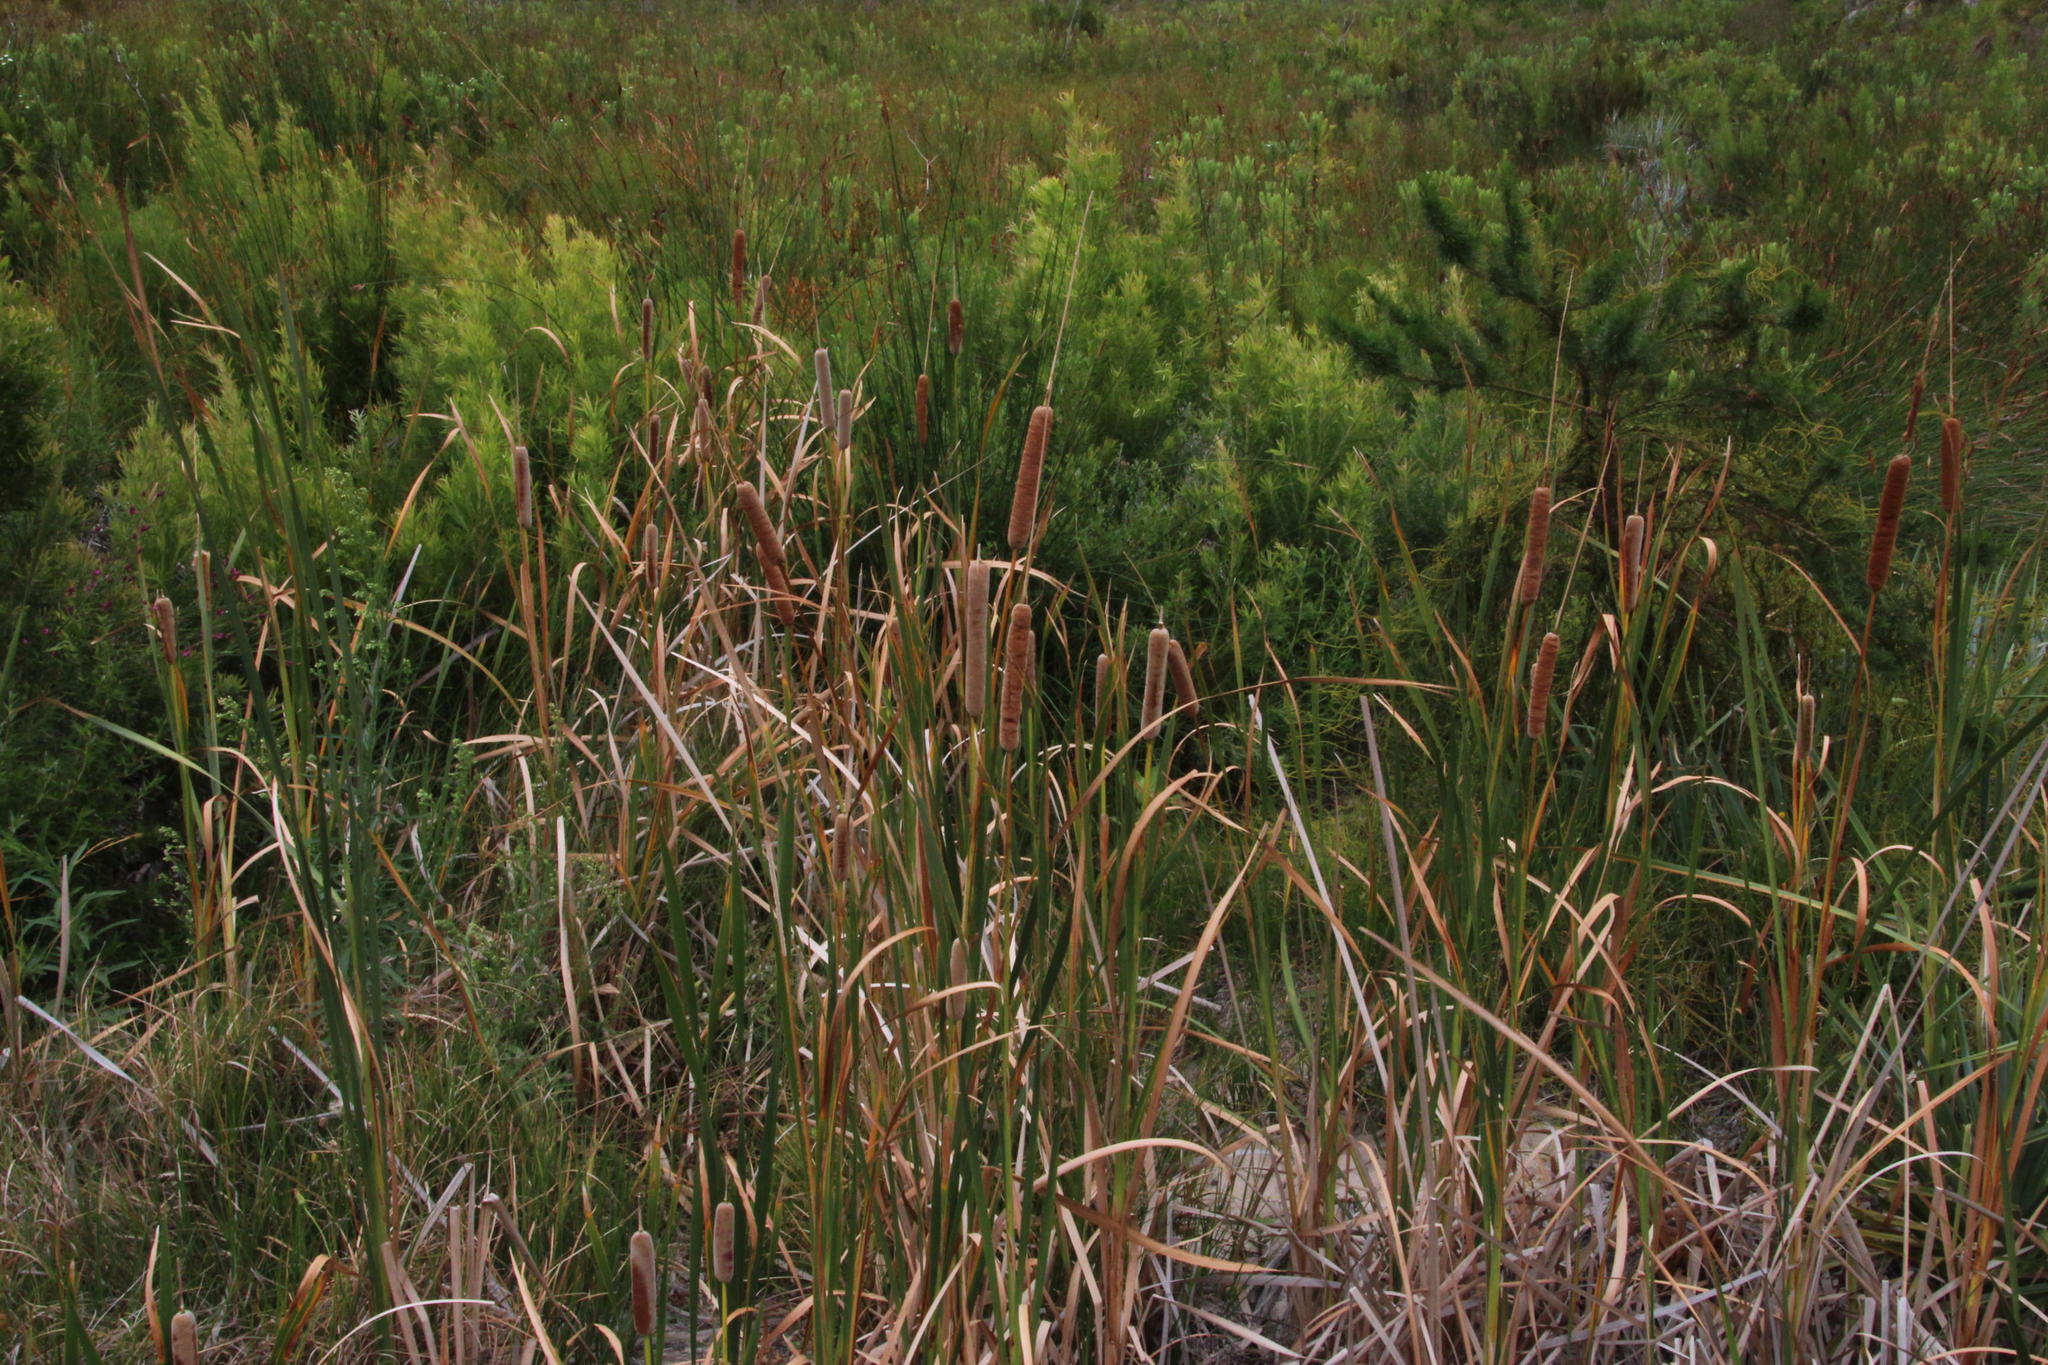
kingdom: Plantae
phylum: Tracheophyta
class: Liliopsida
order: Poales
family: Typhaceae
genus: Typha
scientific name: Typha capensis
